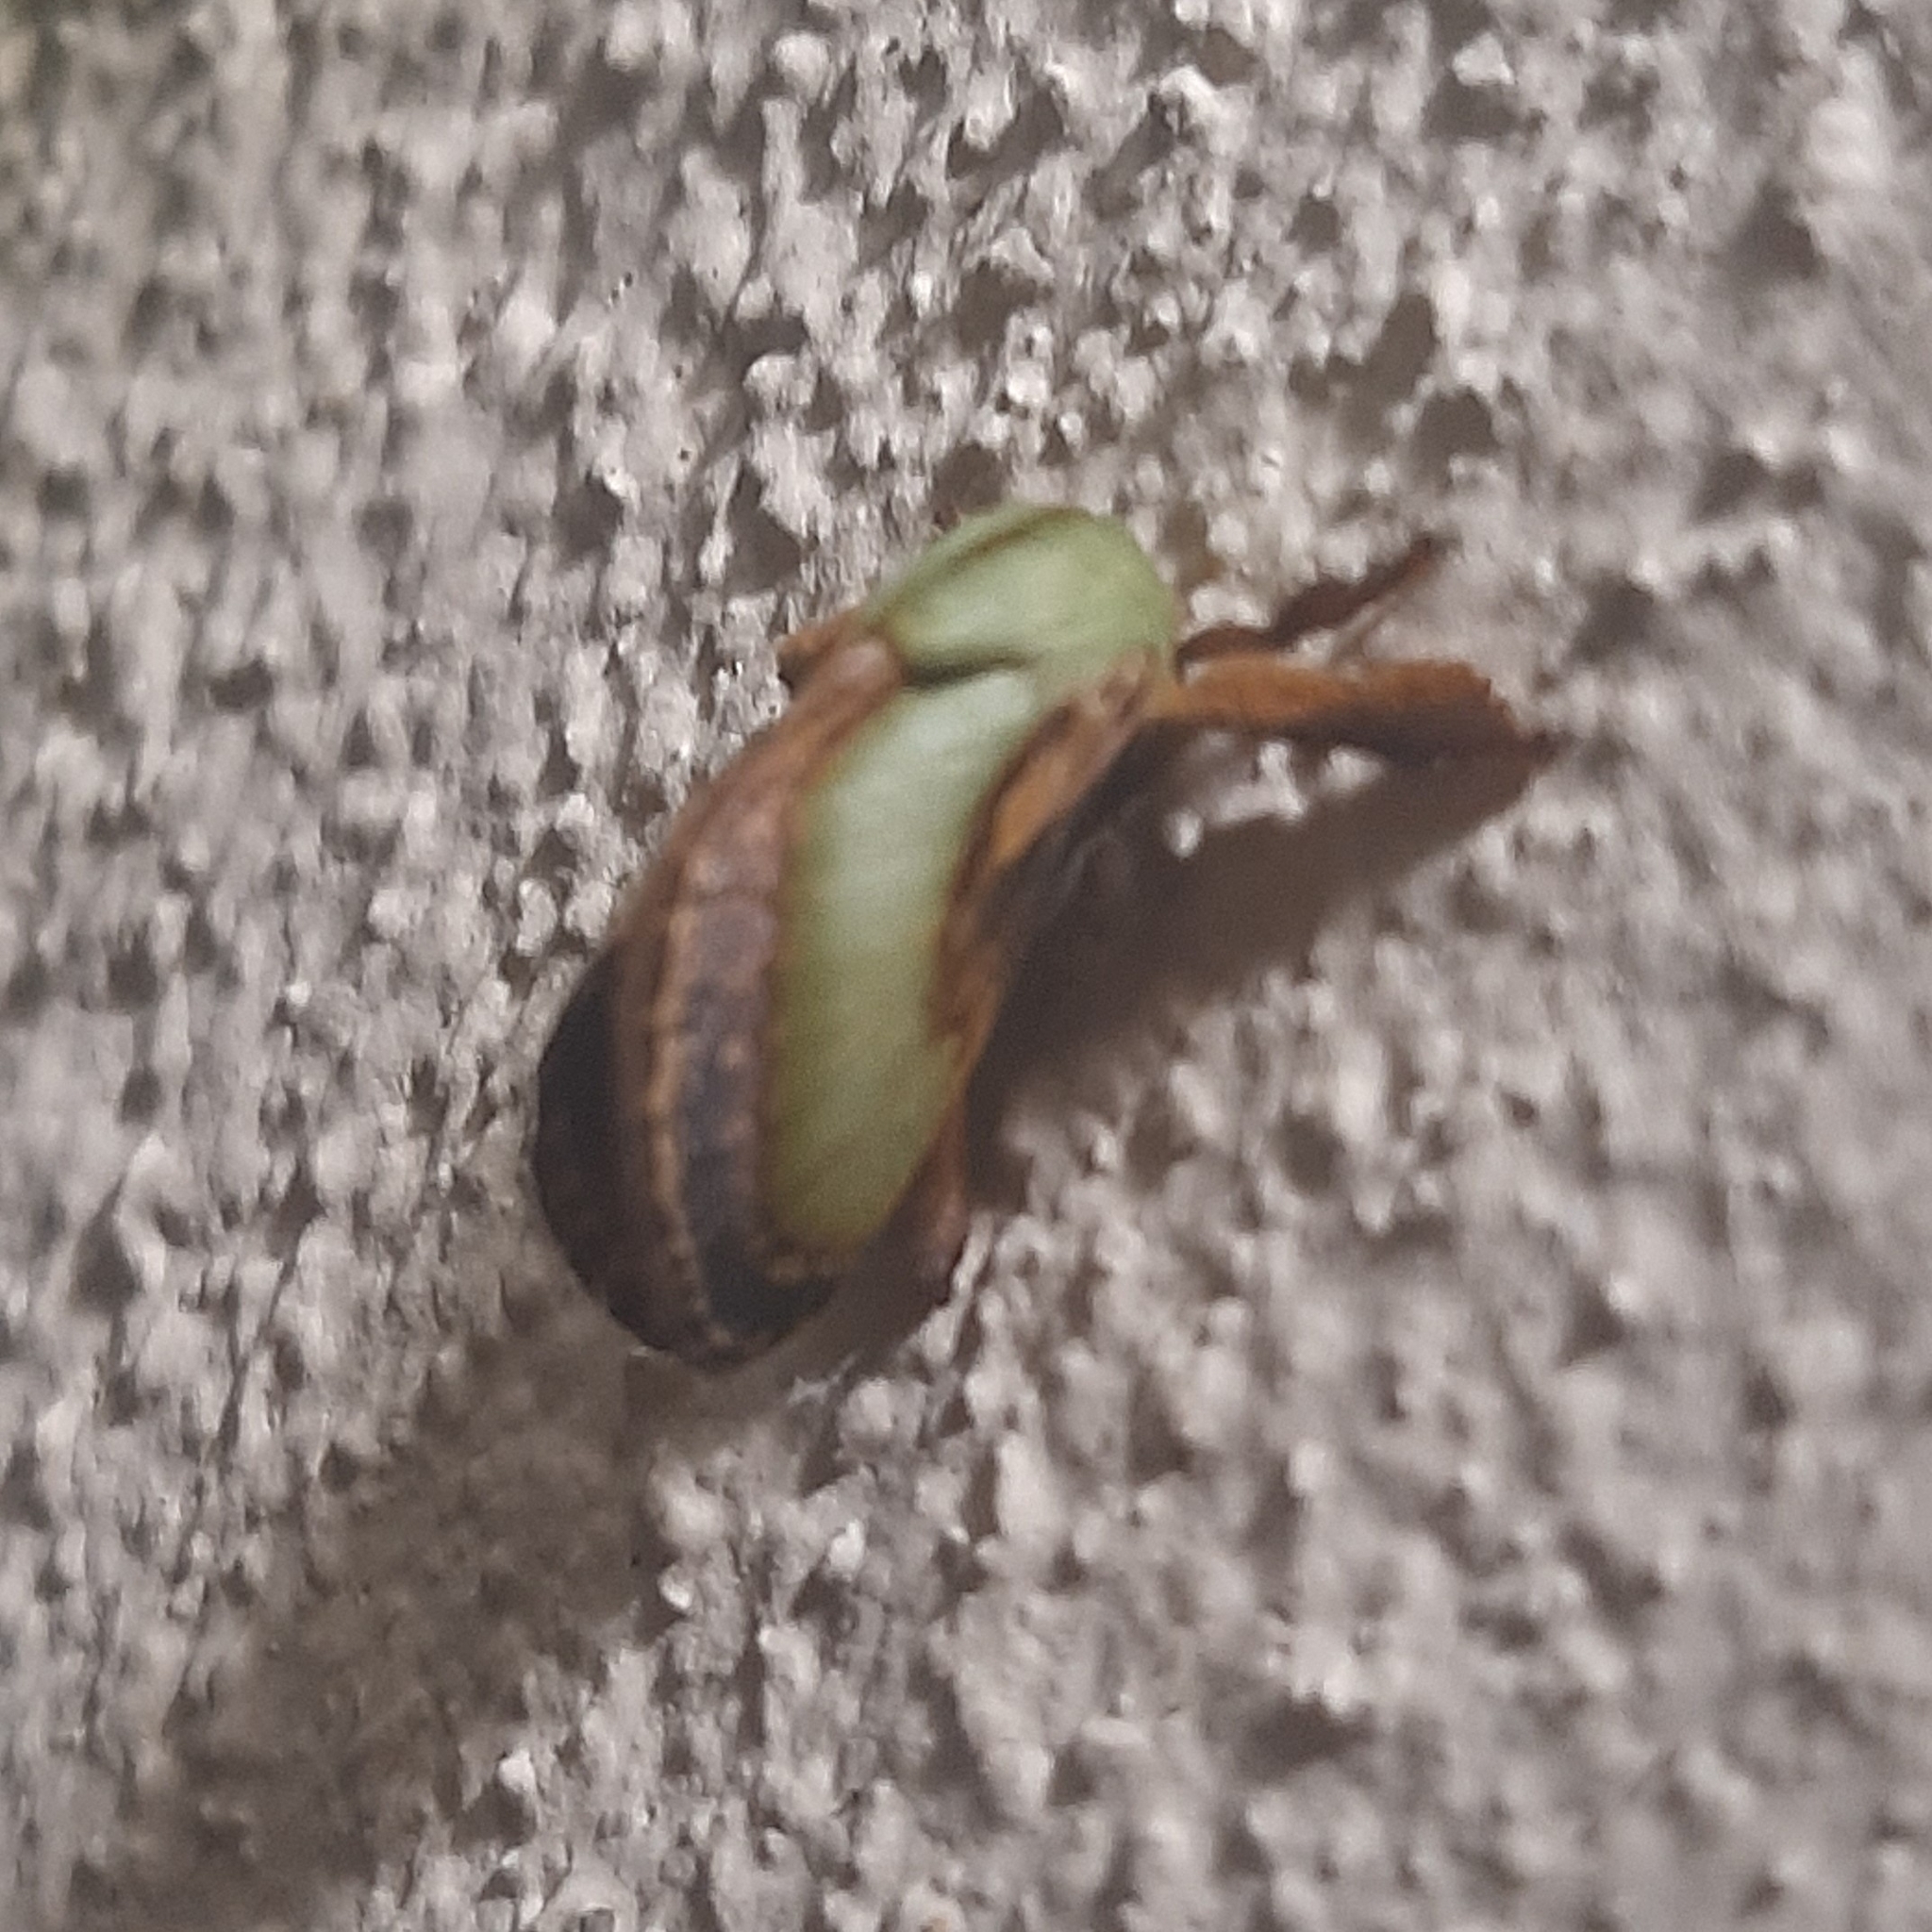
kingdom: Animalia
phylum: Arthropoda
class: Insecta
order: Lepidoptera
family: Limacodidae
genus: Parasa
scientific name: Parasa cebrenis
